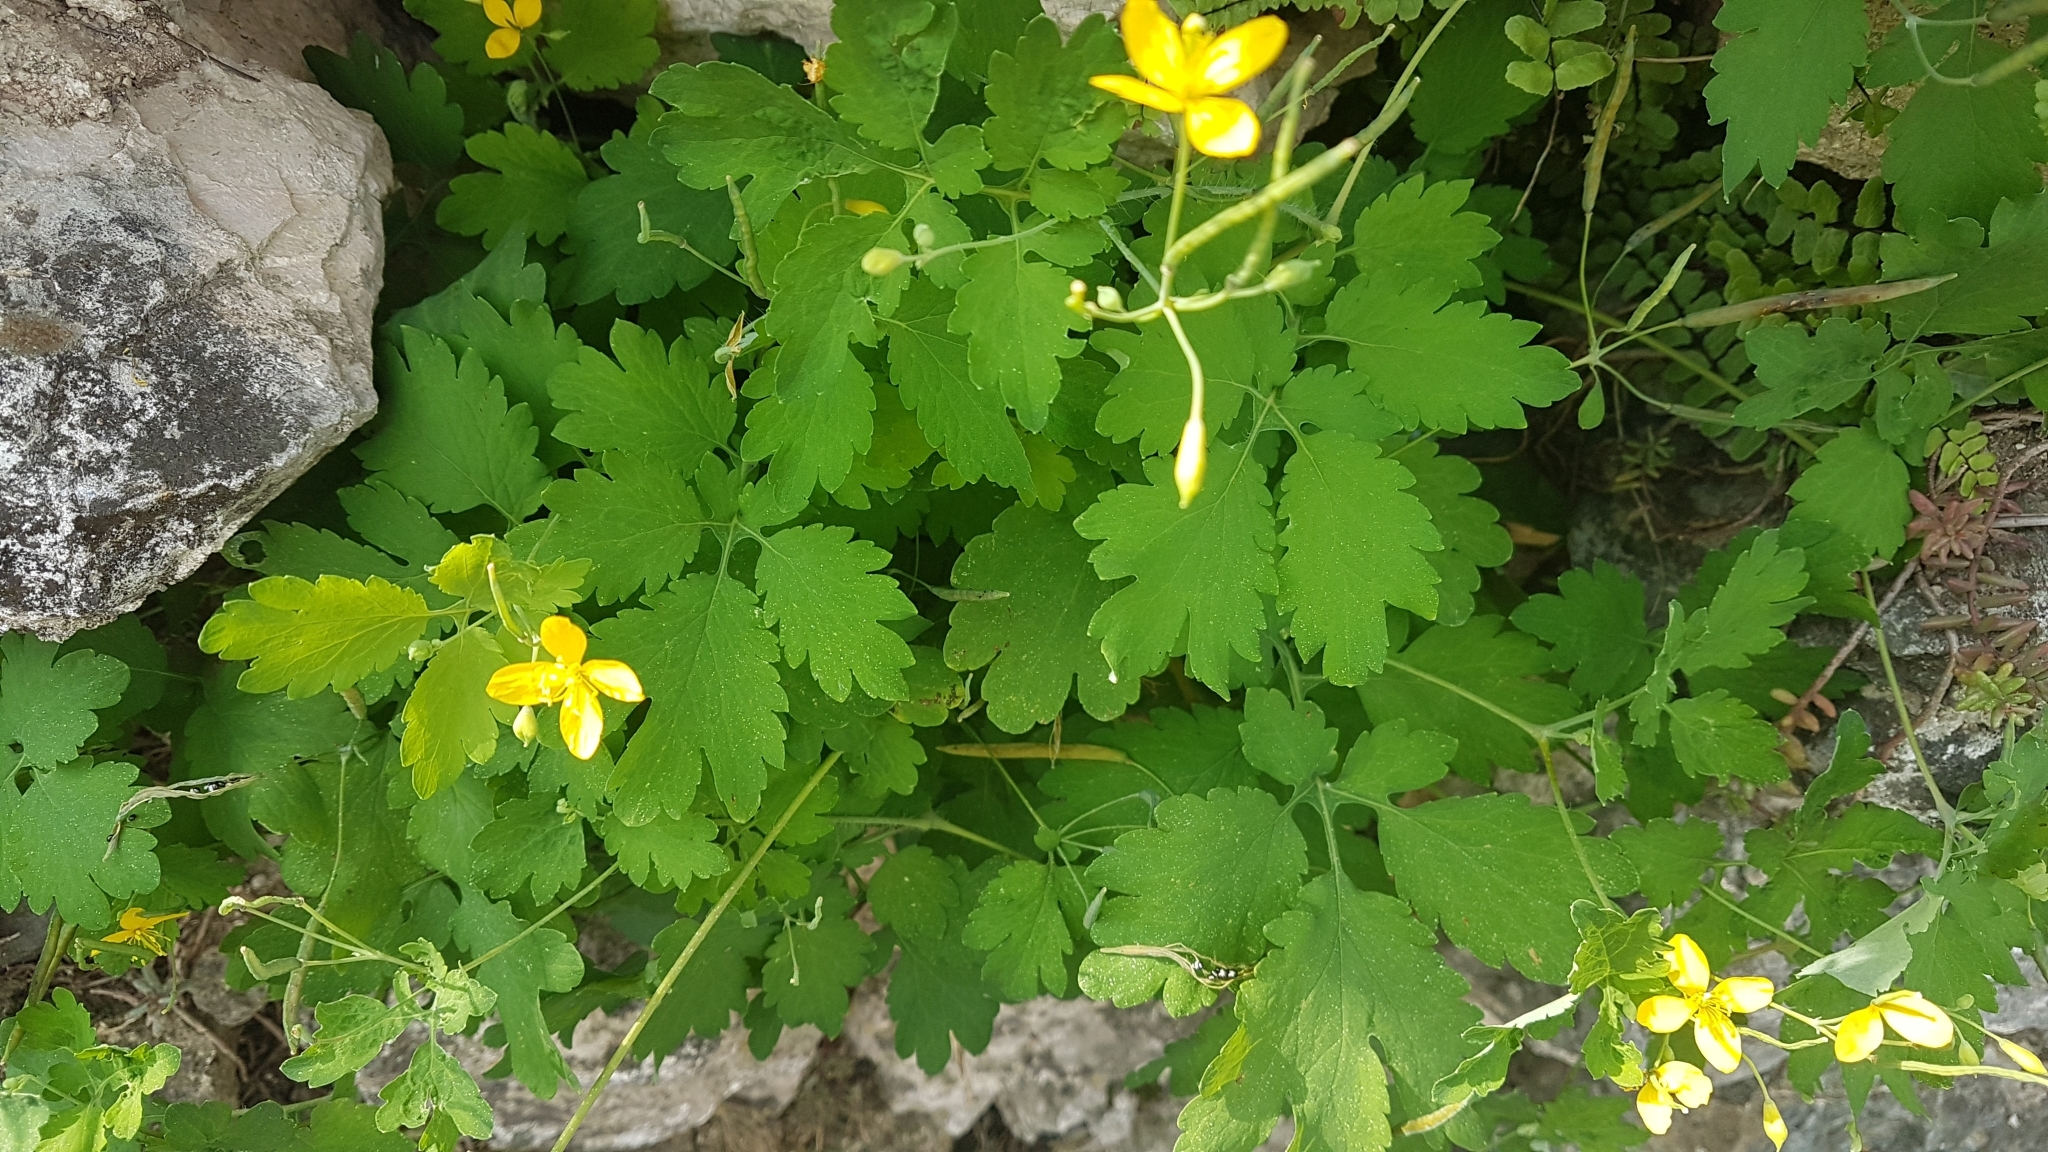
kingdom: Plantae
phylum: Tracheophyta
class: Magnoliopsida
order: Ranunculales
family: Papaveraceae
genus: Chelidonium
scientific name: Chelidonium majus
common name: Greater celandine
